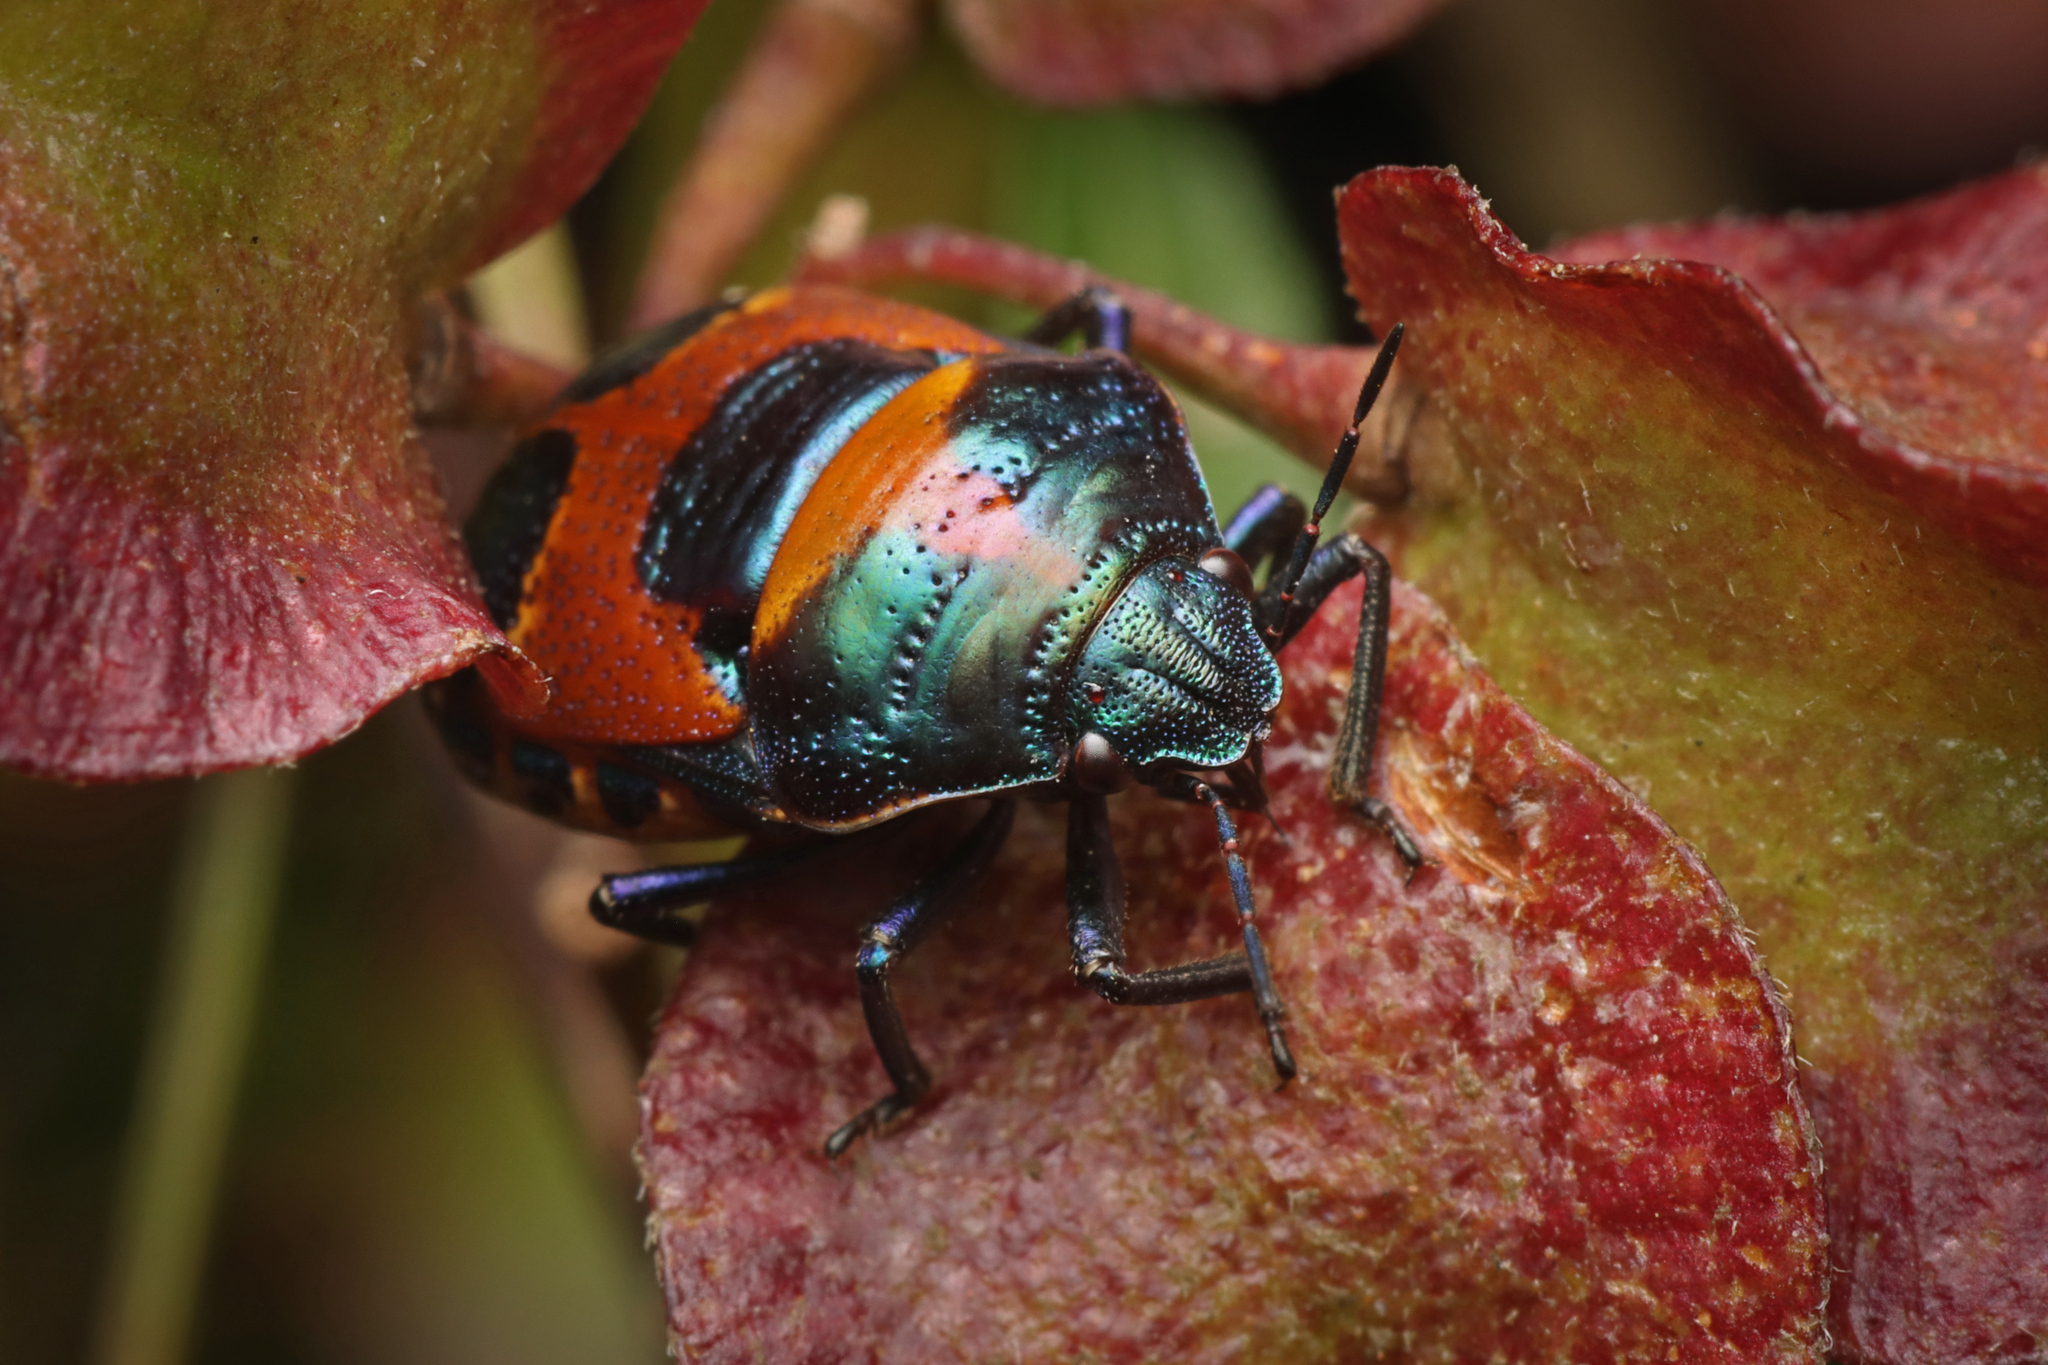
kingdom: Animalia
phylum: Arthropoda
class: Insecta
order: Hemiptera
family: Scutelleridae
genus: Choerocoris
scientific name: Choerocoris paganus
